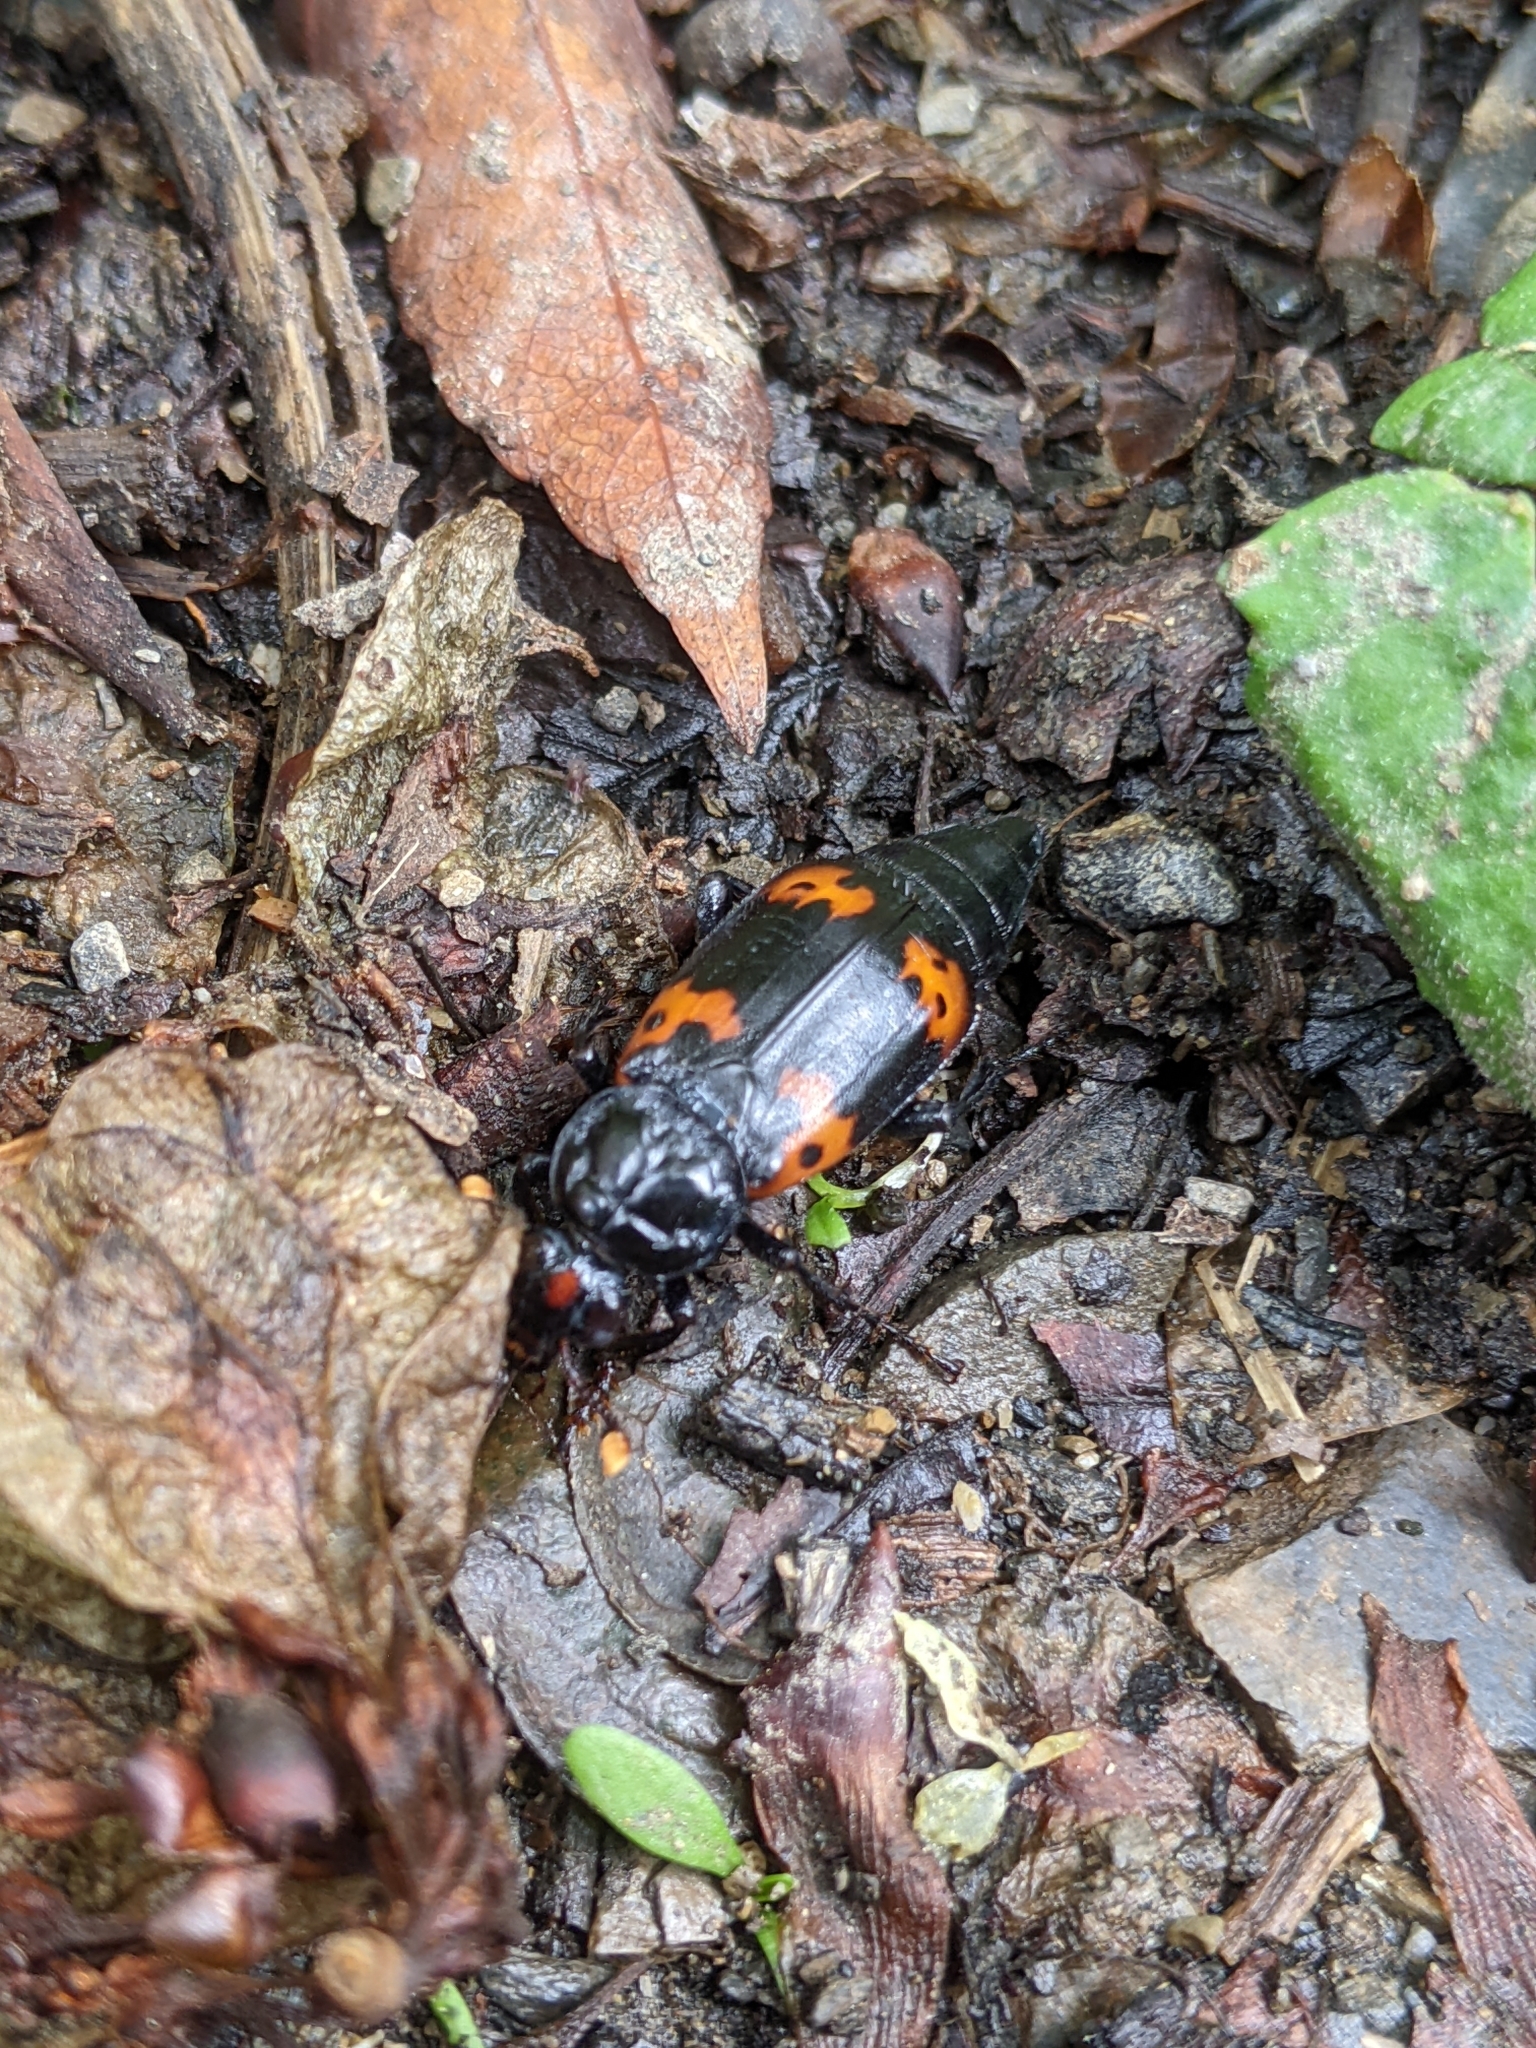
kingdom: Animalia
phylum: Arthropoda
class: Insecta
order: Coleoptera
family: Staphylinidae
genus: Nicrophorus
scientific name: Nicrophorus nepalensis
